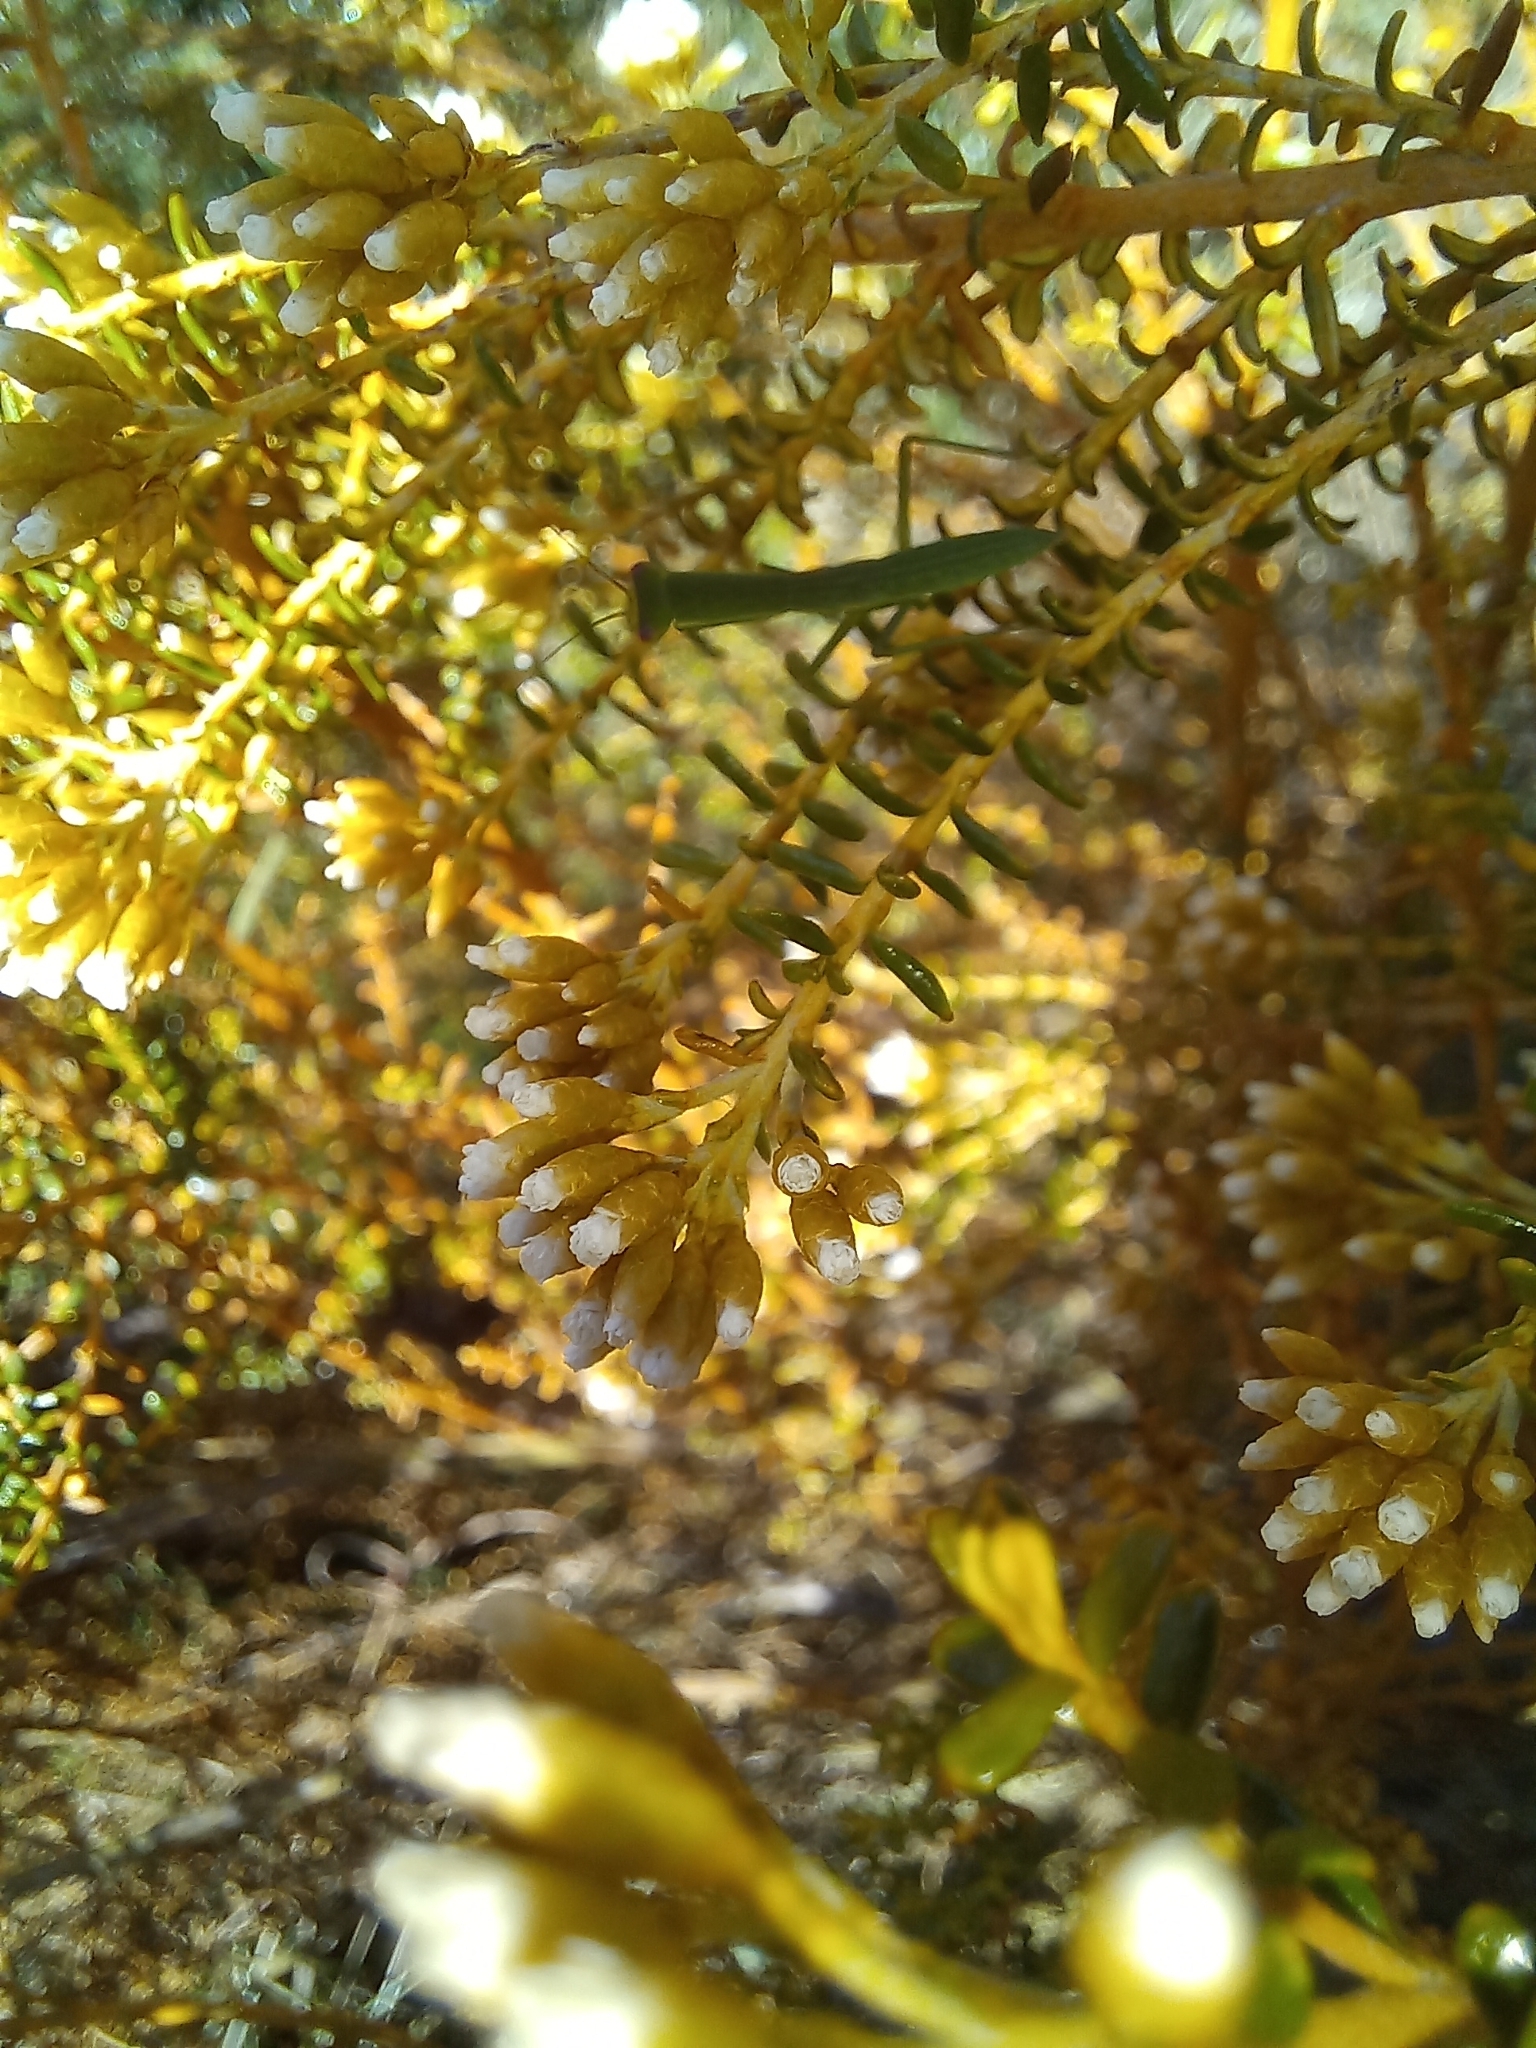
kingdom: Animalia
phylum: Arthropoda
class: Insecta
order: Mantodea
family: Mantidae
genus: Orthodera
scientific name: Orthodera novaezealandiae
